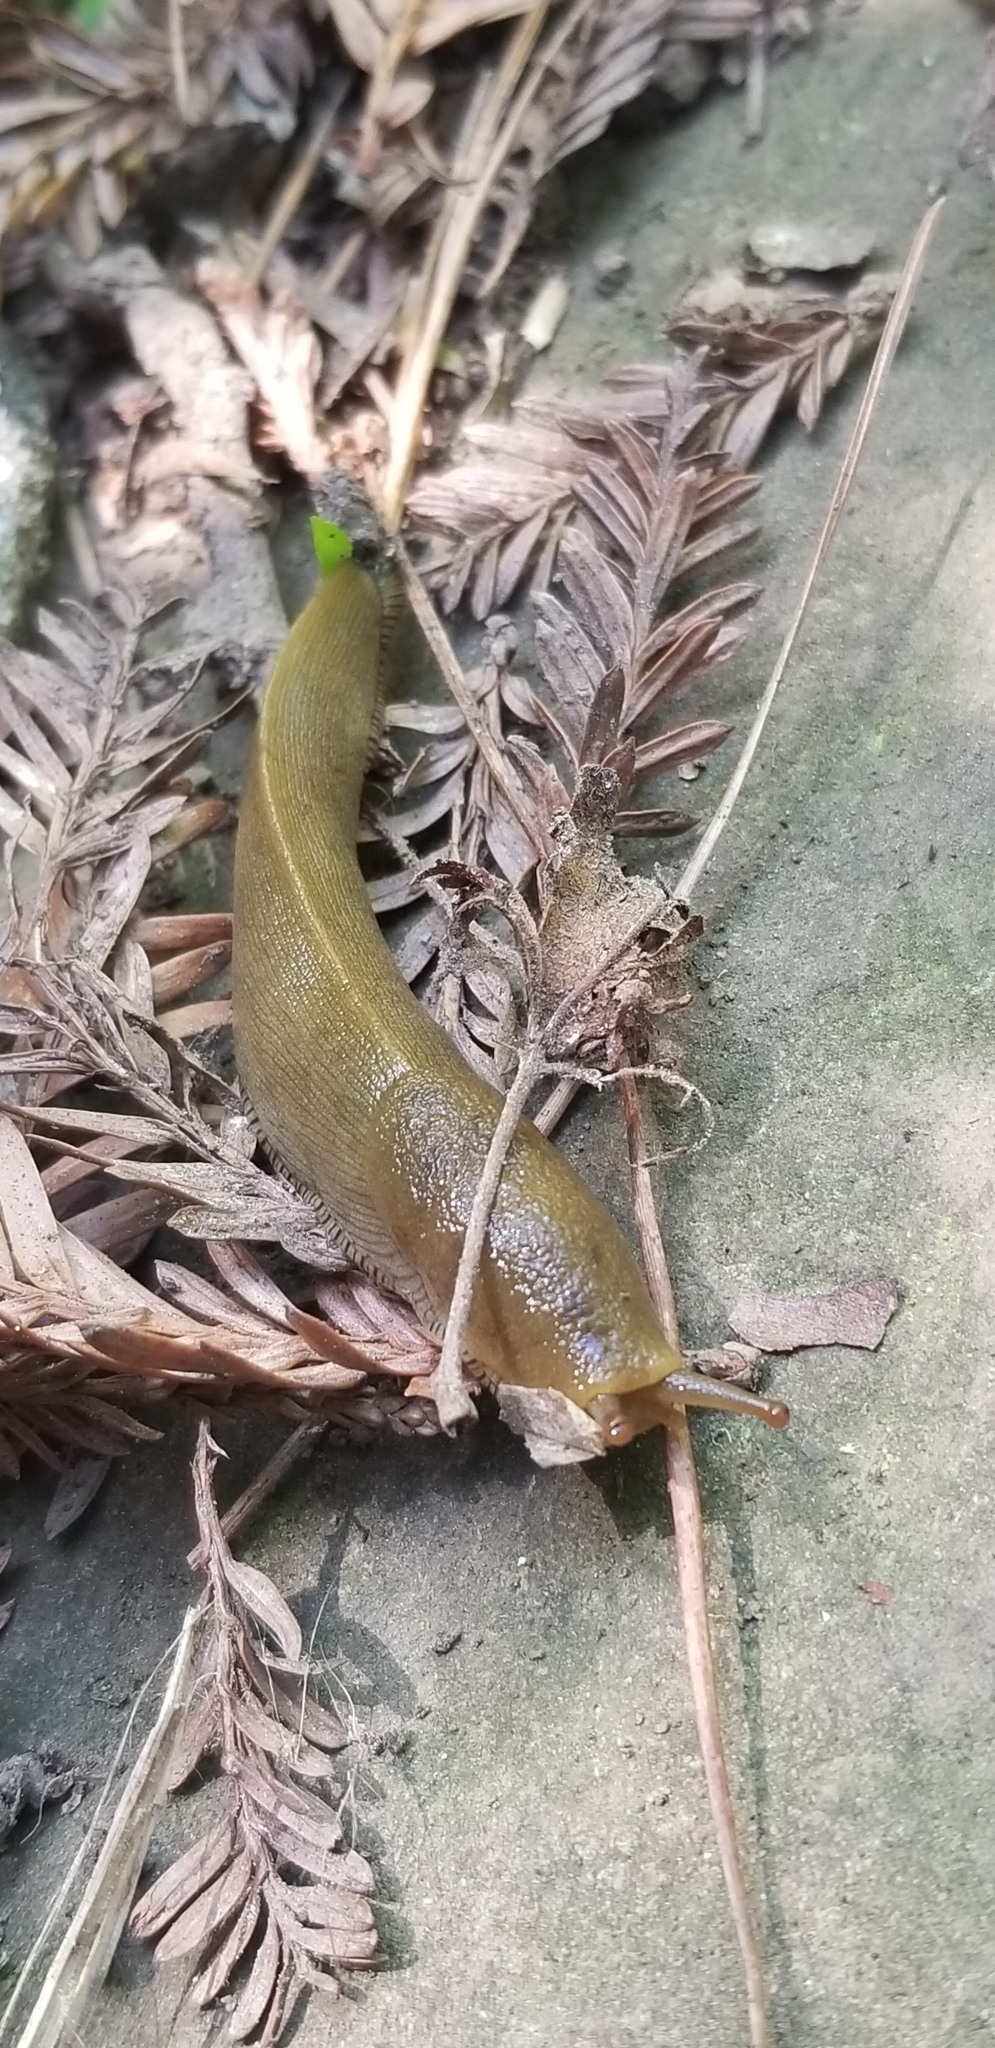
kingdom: Animalia
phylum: Mollusca
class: Gastropoda
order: Stylommatophora
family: Ariolimacidae
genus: Ariolimax
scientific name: Ariolimax buttoni
